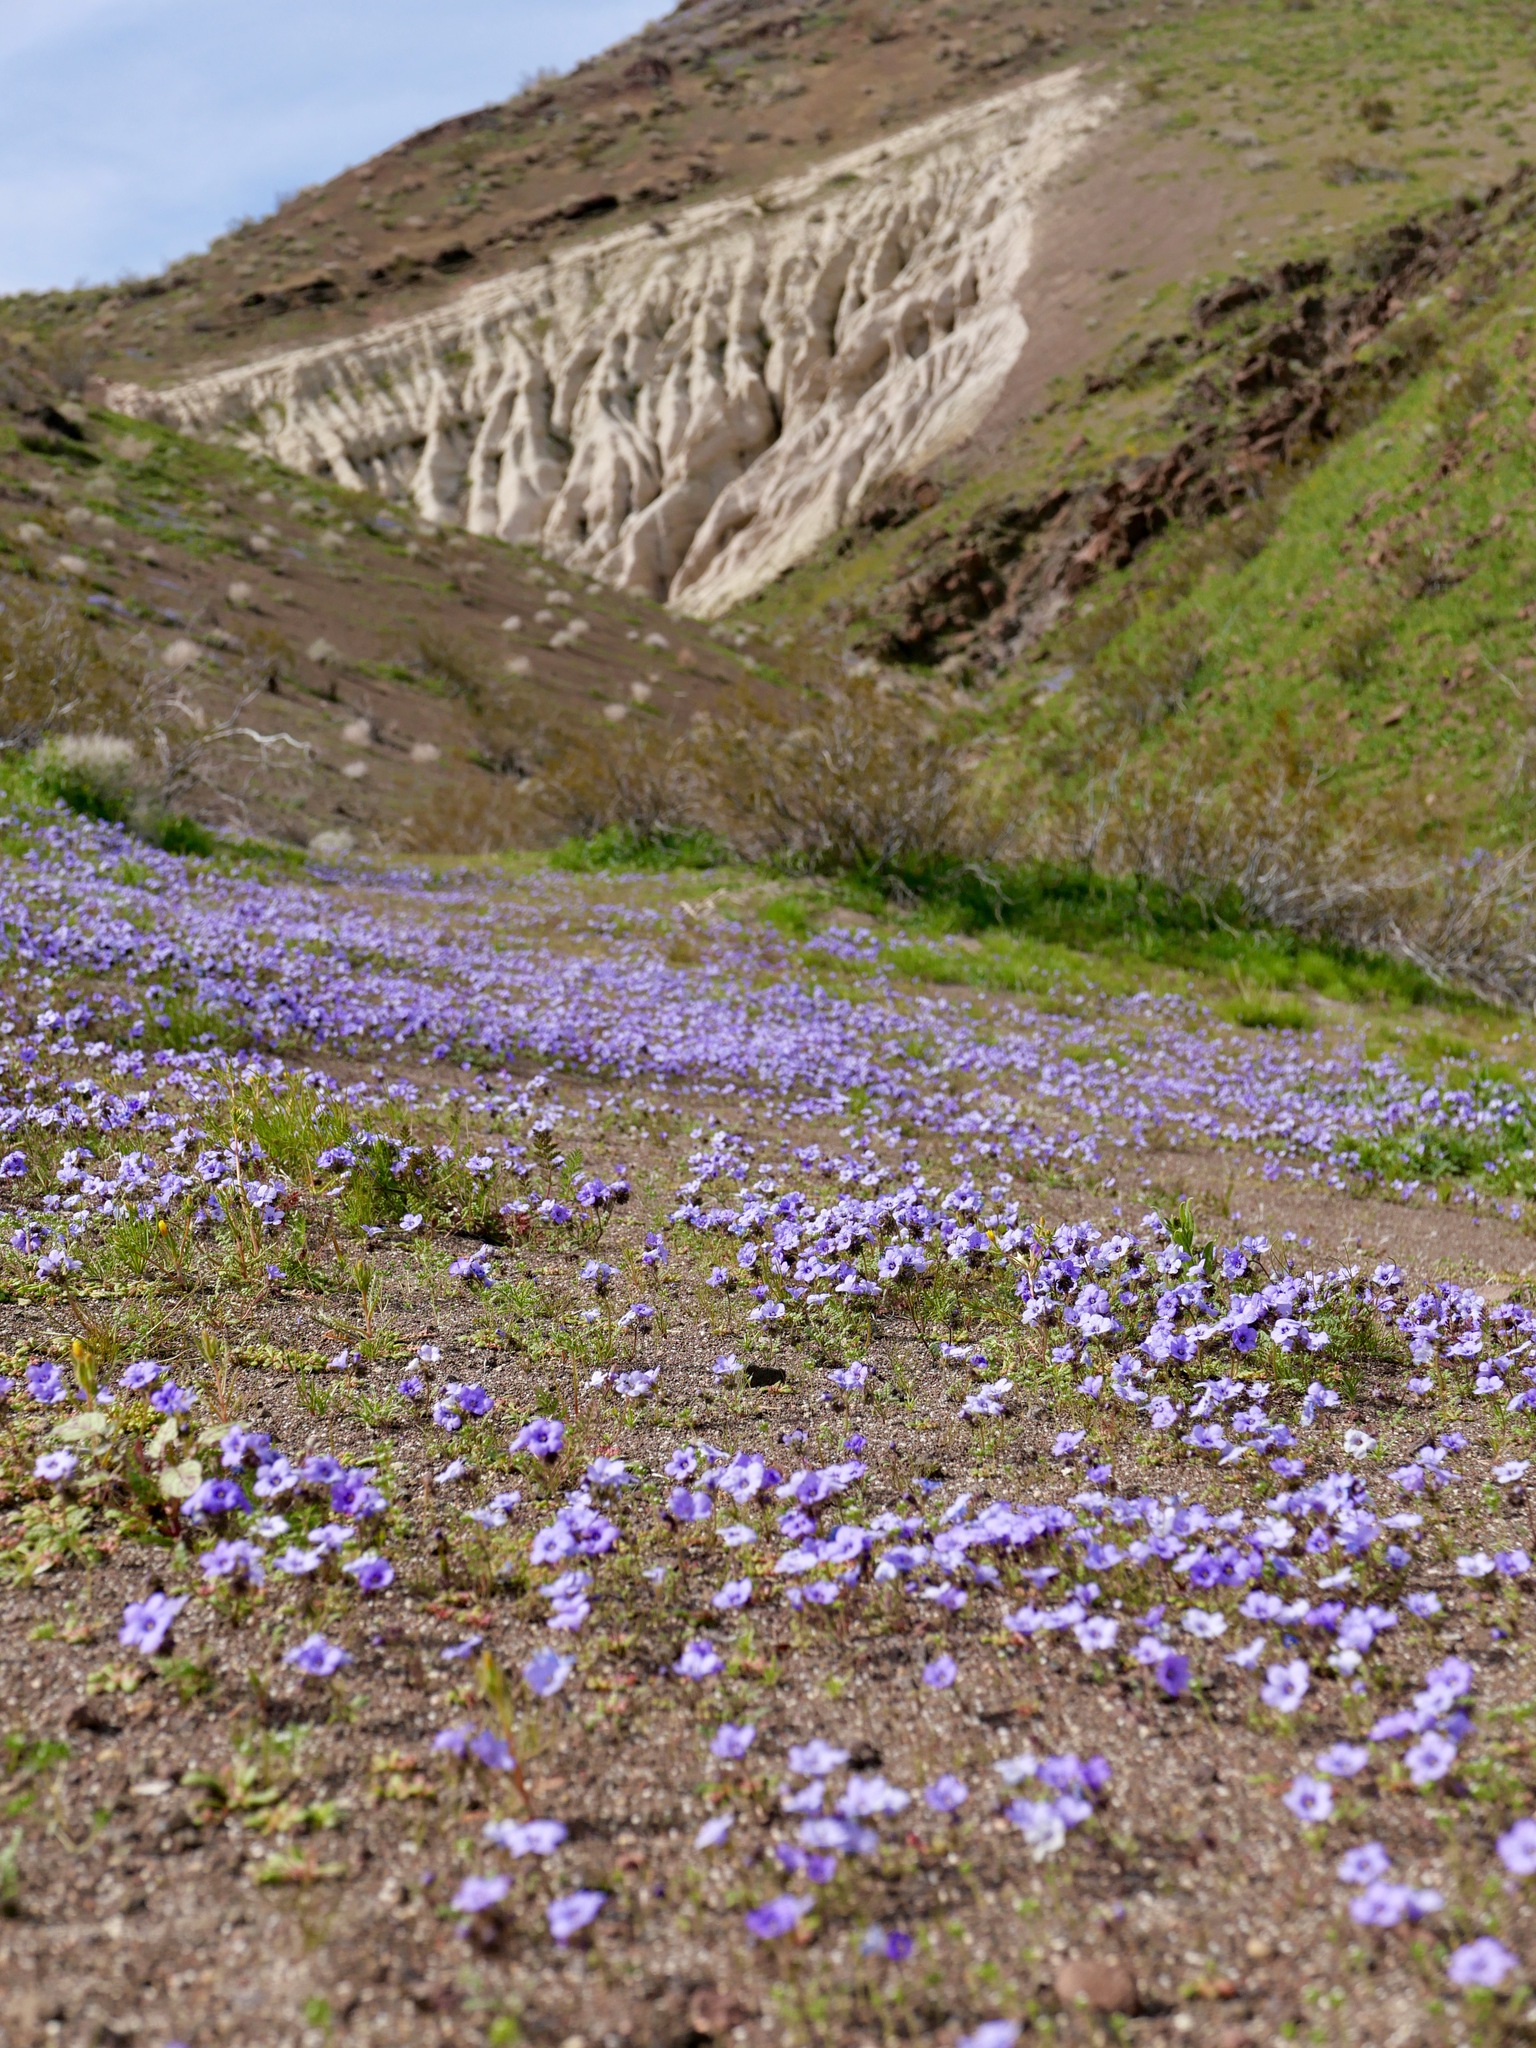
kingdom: Plantae
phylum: Tracheophyta
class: Magnoliopsida
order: Boraginales
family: Hydrophyllaceae
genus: Phacelia
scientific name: Phacelia fremontii
